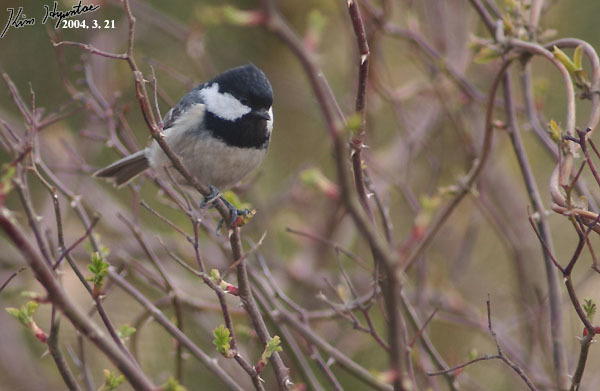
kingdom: Animalia
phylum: Chordata
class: Aves
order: Passeriformes
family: Paridae
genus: Periparus
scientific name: Periparus ater
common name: Coal tit
